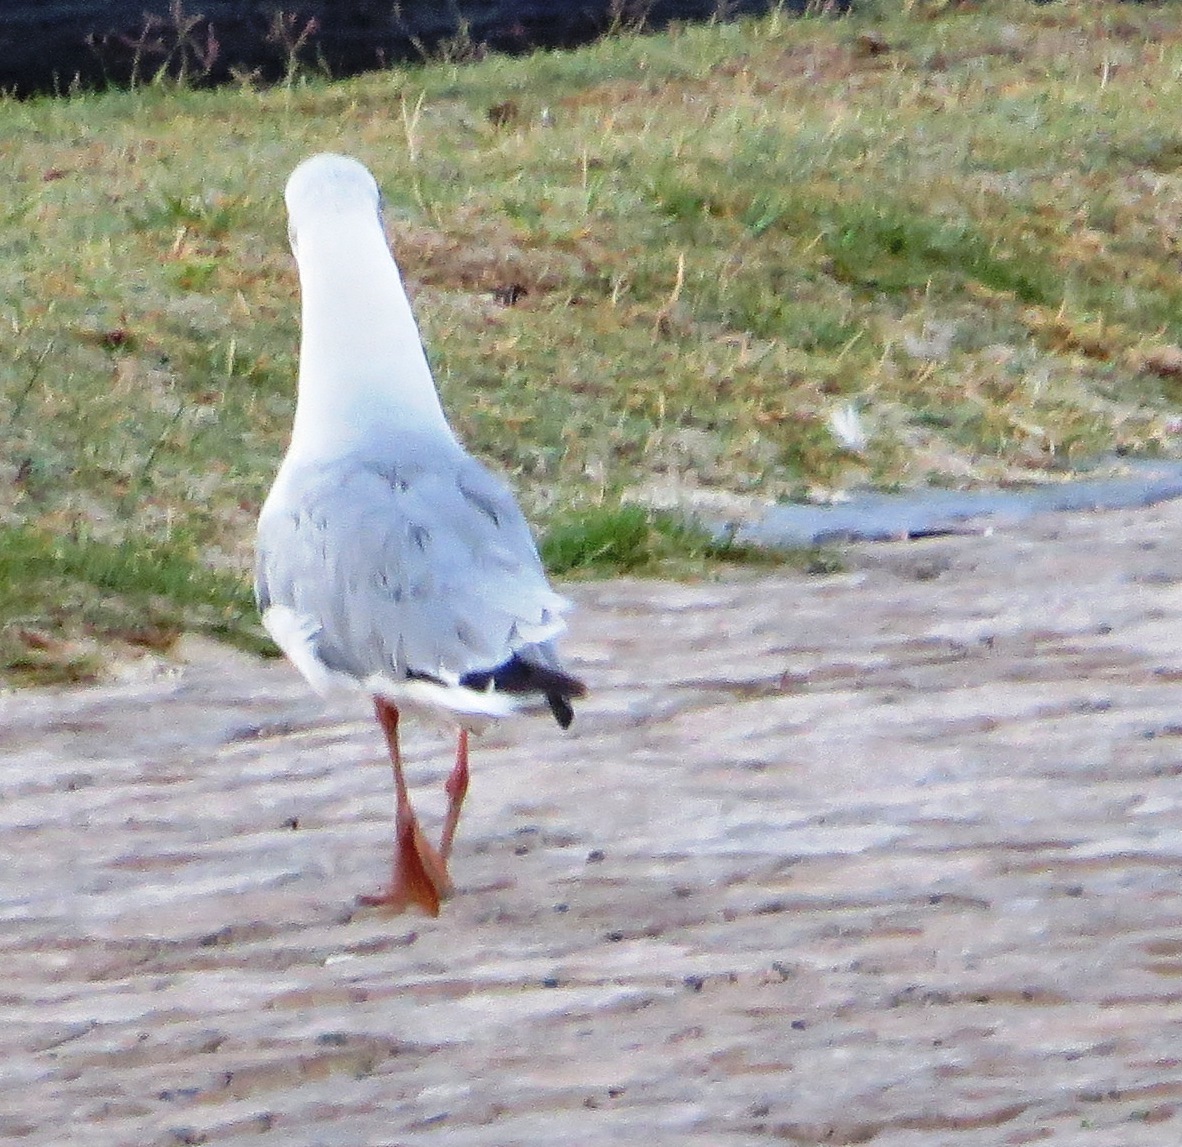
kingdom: Animalia
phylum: Chordata
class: Aves
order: Charadriiformes
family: Laridae
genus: Chroicocephalus
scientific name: Chroicocephalus hartlaubii
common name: Hartlaub's gull
